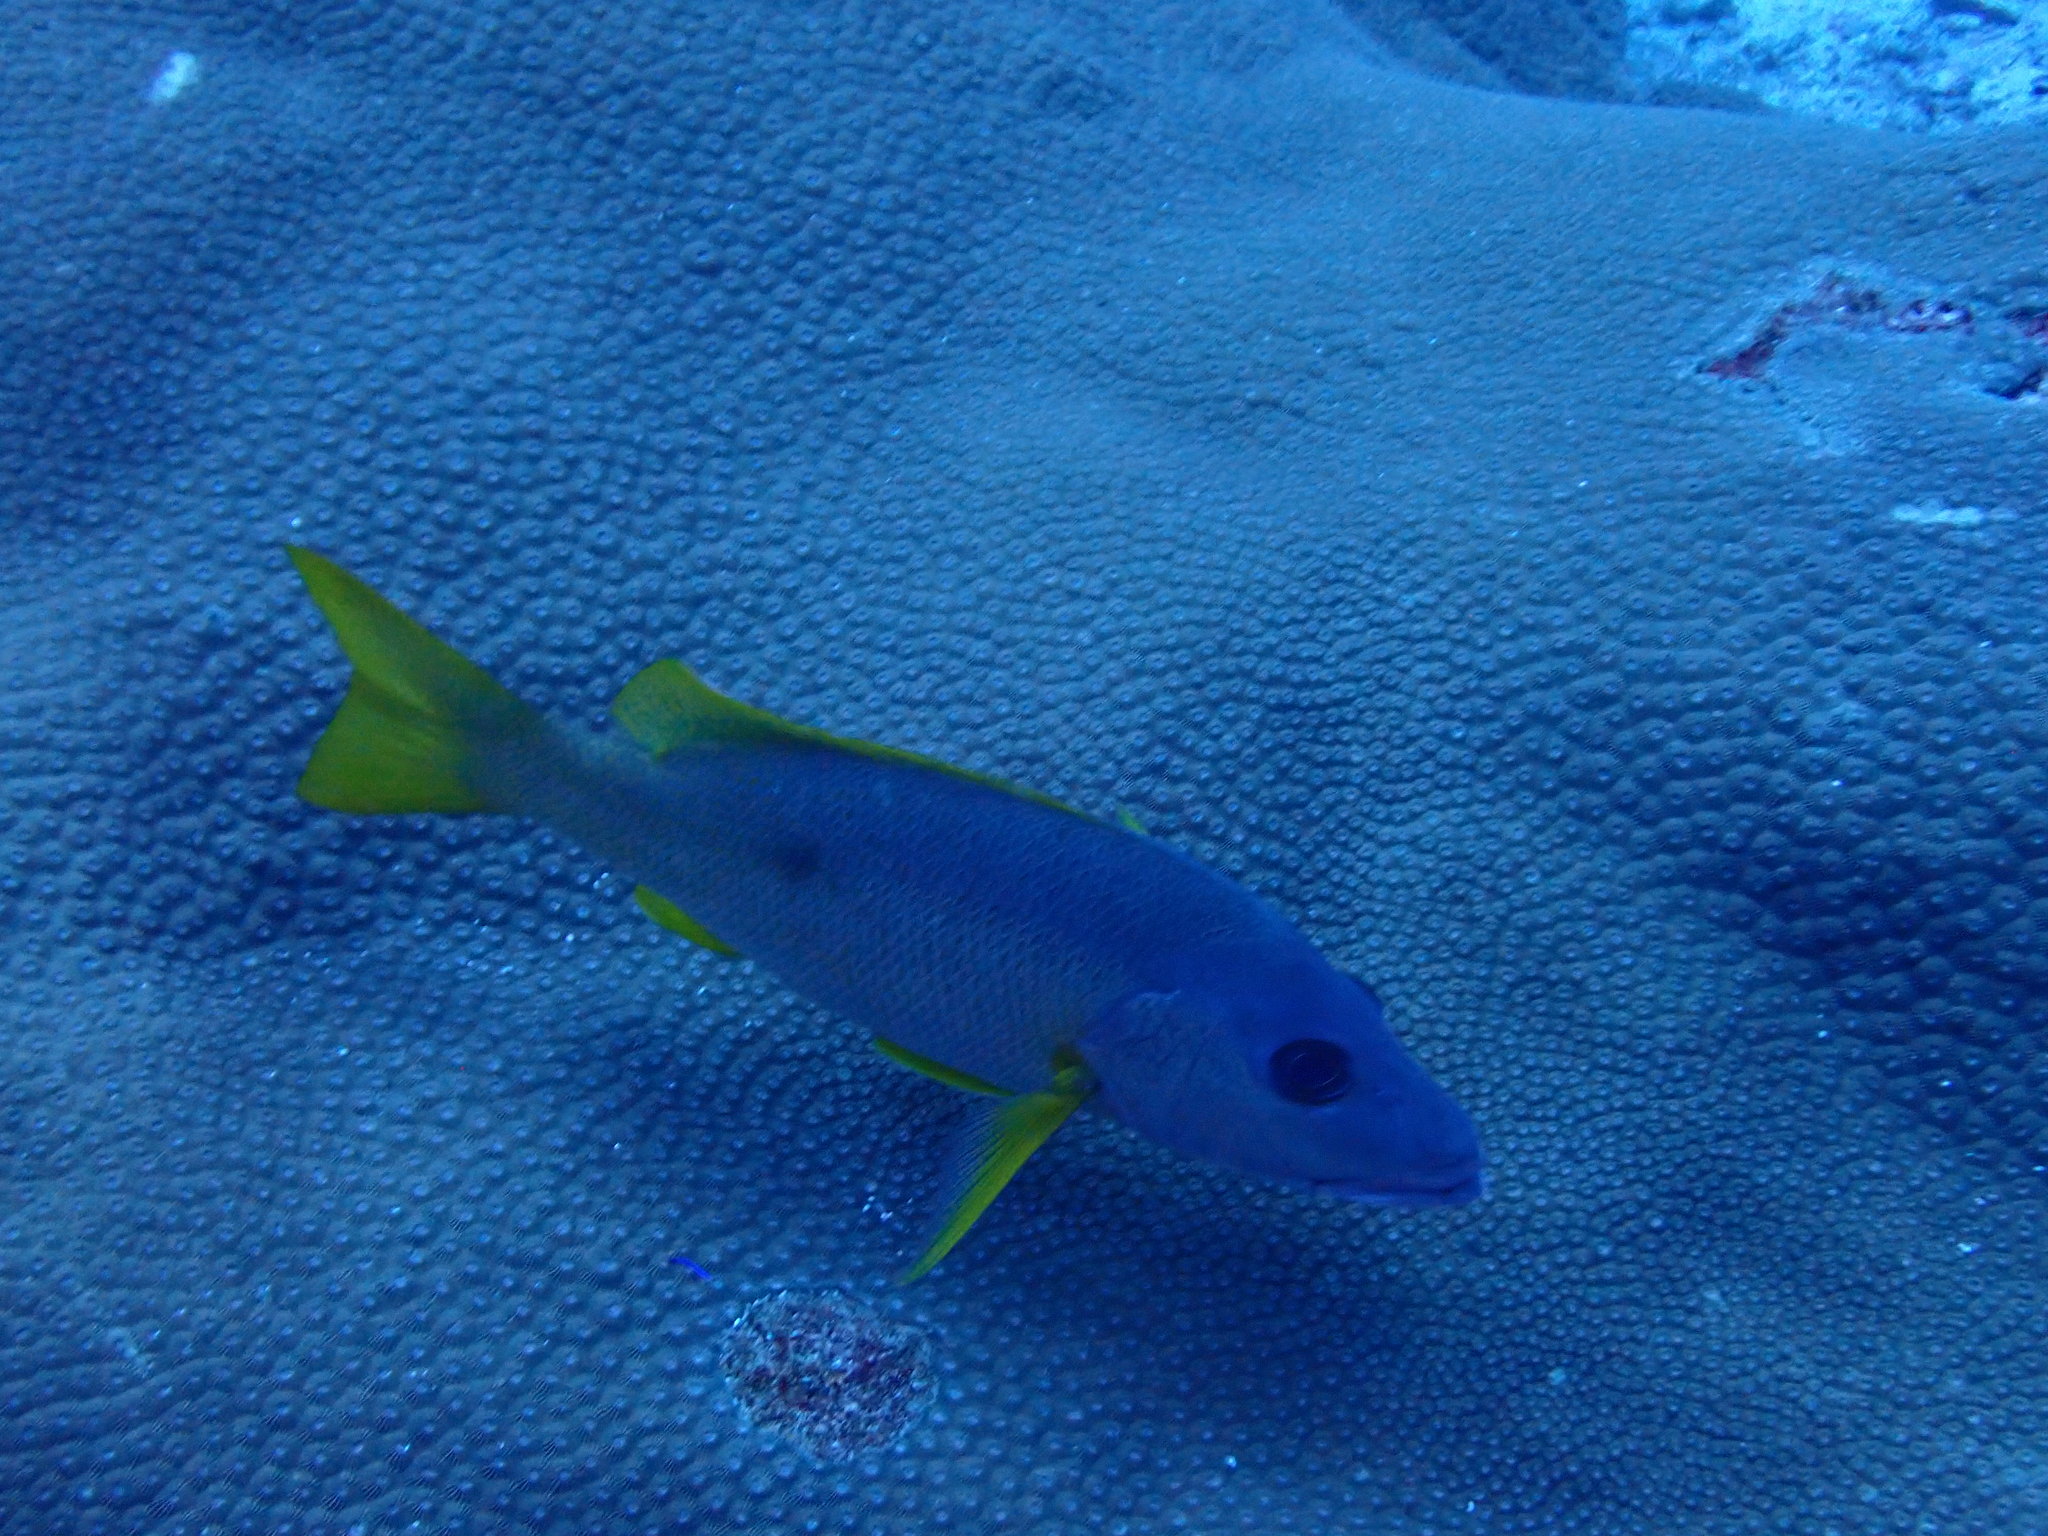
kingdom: Animalia
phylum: Chordata
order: Perciformes
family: Lutjanidae
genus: Lutjanus
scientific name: Lutjanus monostigma
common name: Onespot snapper
